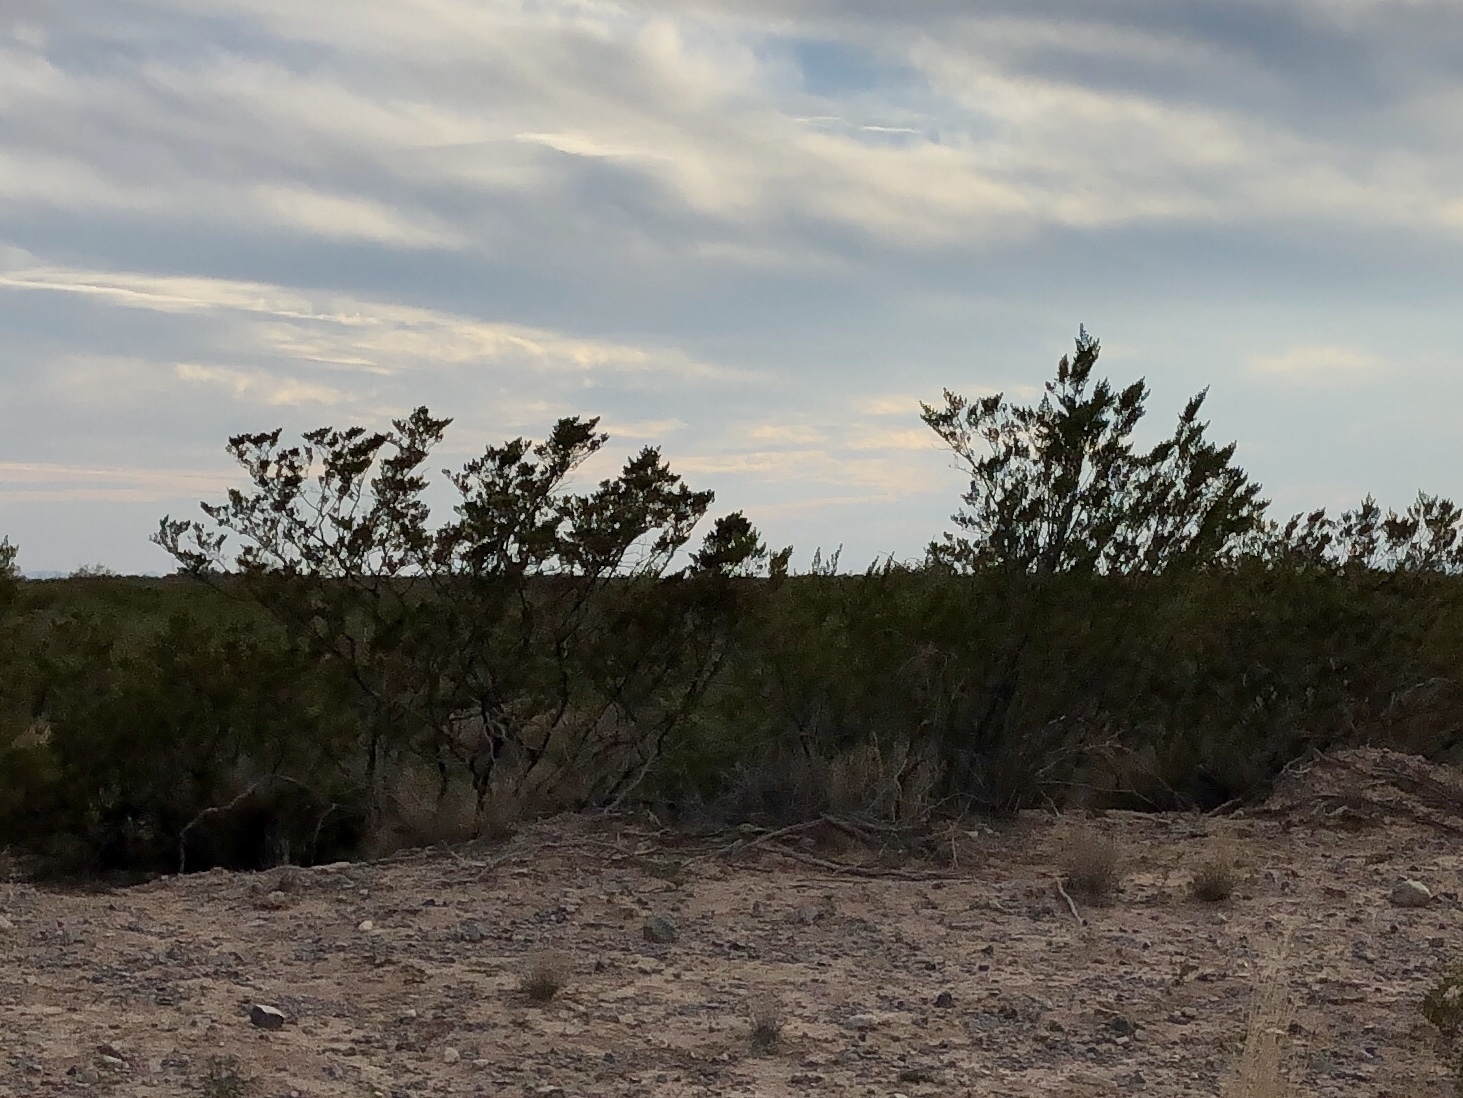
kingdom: Plantae
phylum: Tracheophyta
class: Magnoliopsida
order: Zygophyllales
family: Zygophyllaceae
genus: Larrea
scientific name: Larrea tridentata
